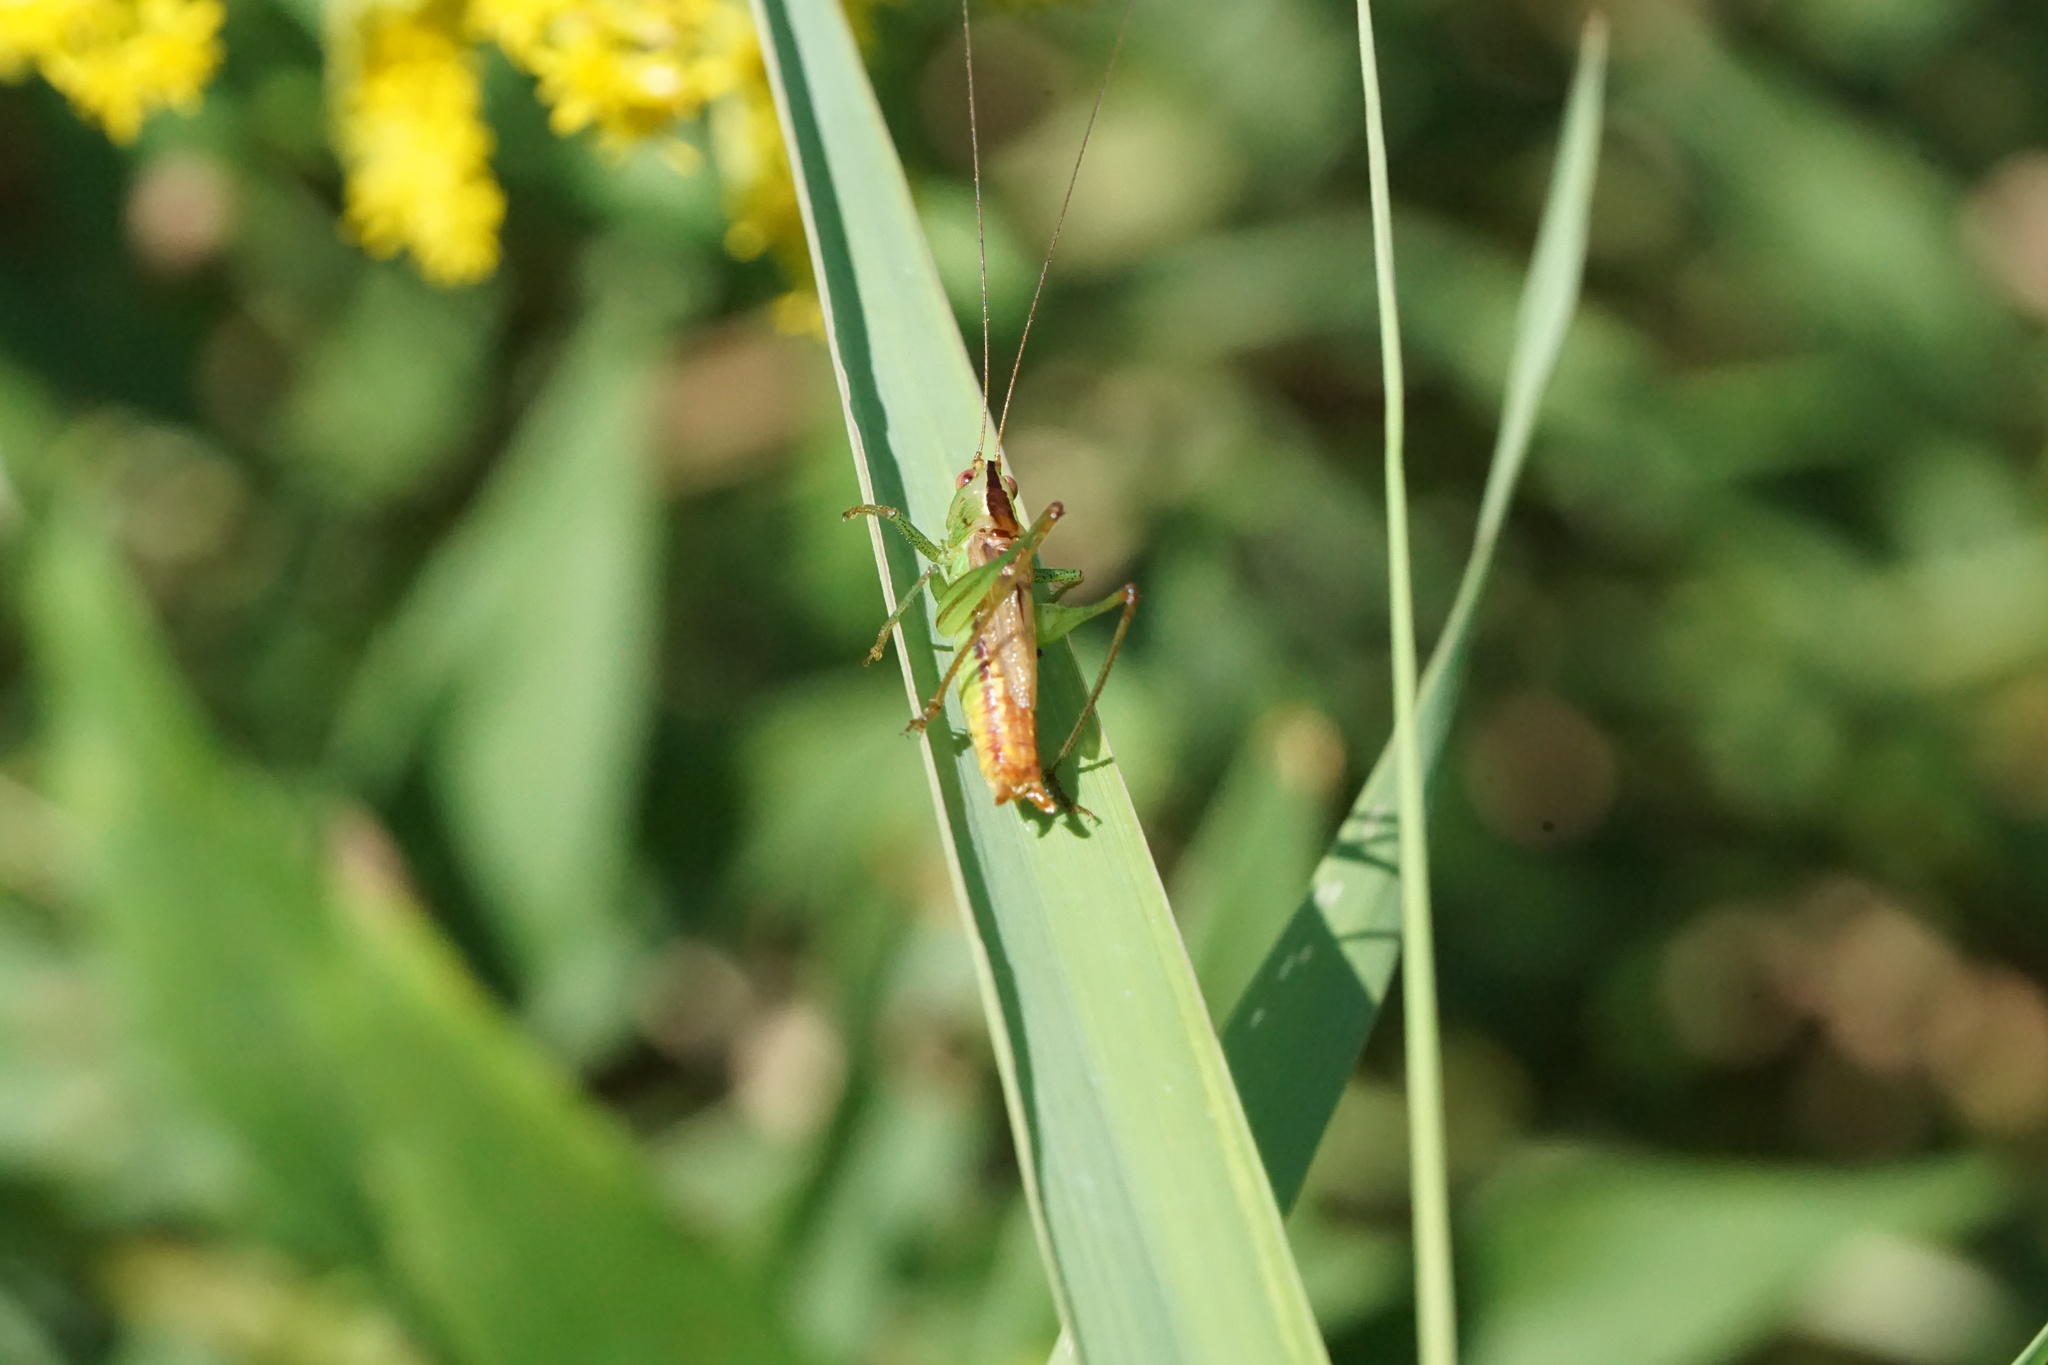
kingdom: Animalia
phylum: Arthropoda
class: Insecta
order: Orthoptera
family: Tettigoniidae
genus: Conocephalus
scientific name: Conocephalus brevipennis
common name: Short-winged meadow katydid
